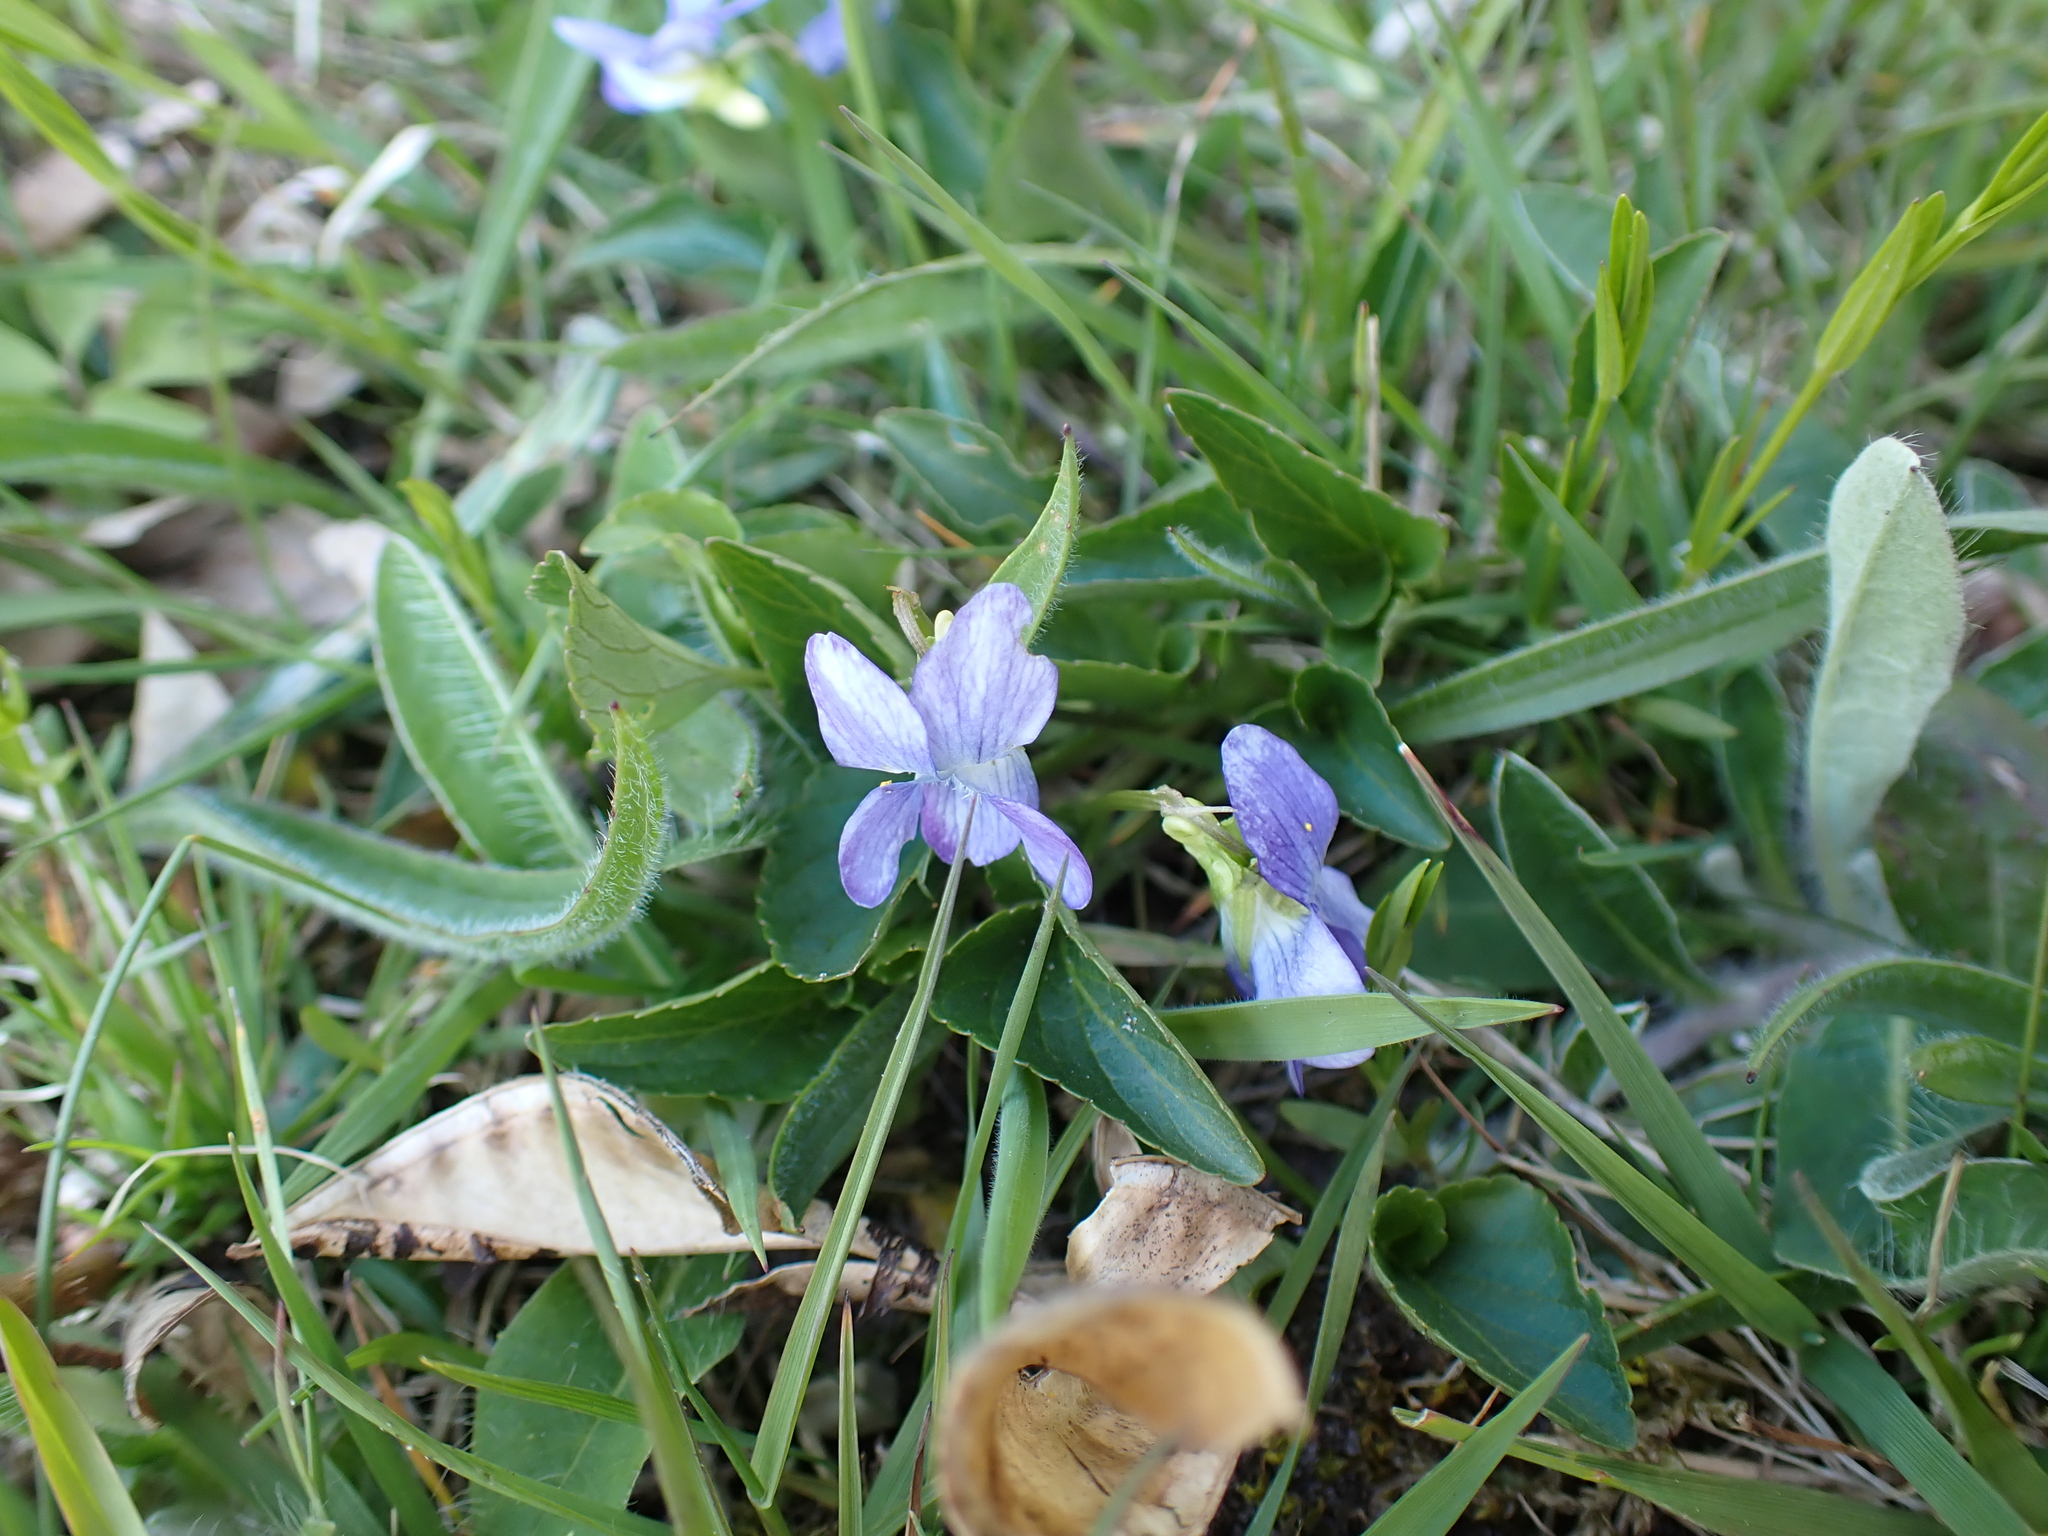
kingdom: Plantae
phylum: Tracheophyta
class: Magnoliopsida
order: Malpighiales
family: Violaceae
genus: Viola
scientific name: Viola canina
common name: Heath dog-violet
